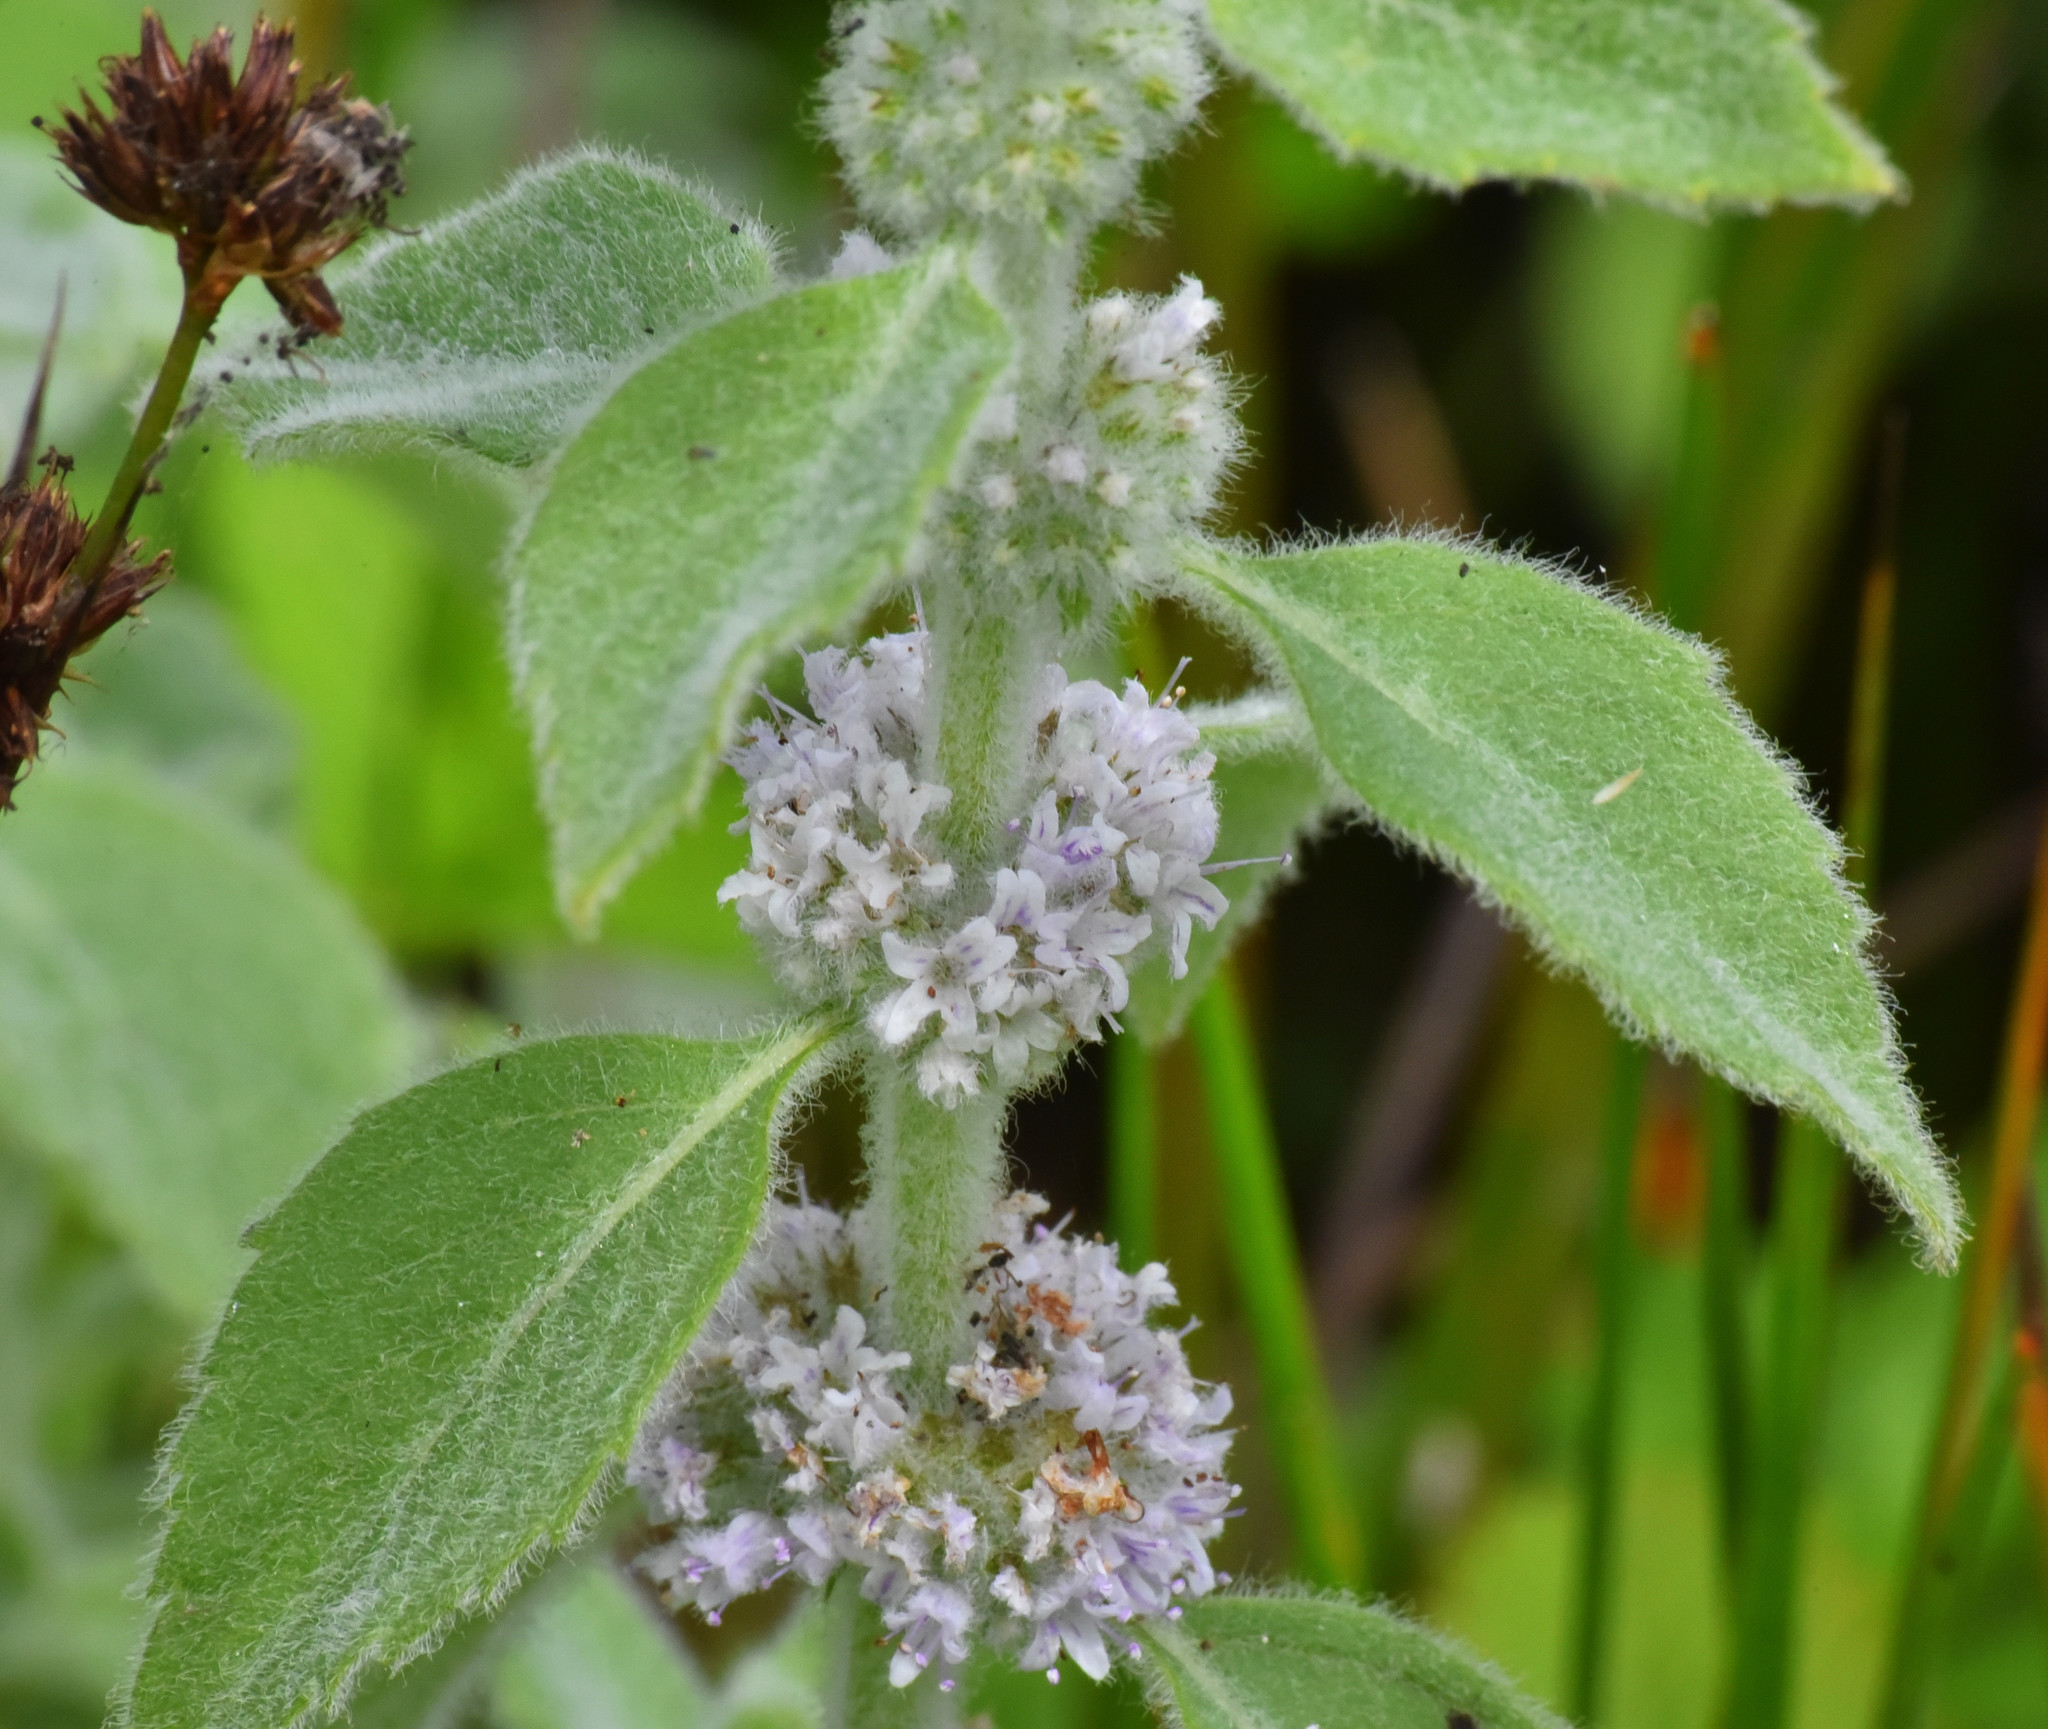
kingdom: Plantae
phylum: Tracheophyta
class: Magnoliopsida
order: Lamiales
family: Lamiaceae
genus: Mentha
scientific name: Mentha arvensis
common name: Corn mint
